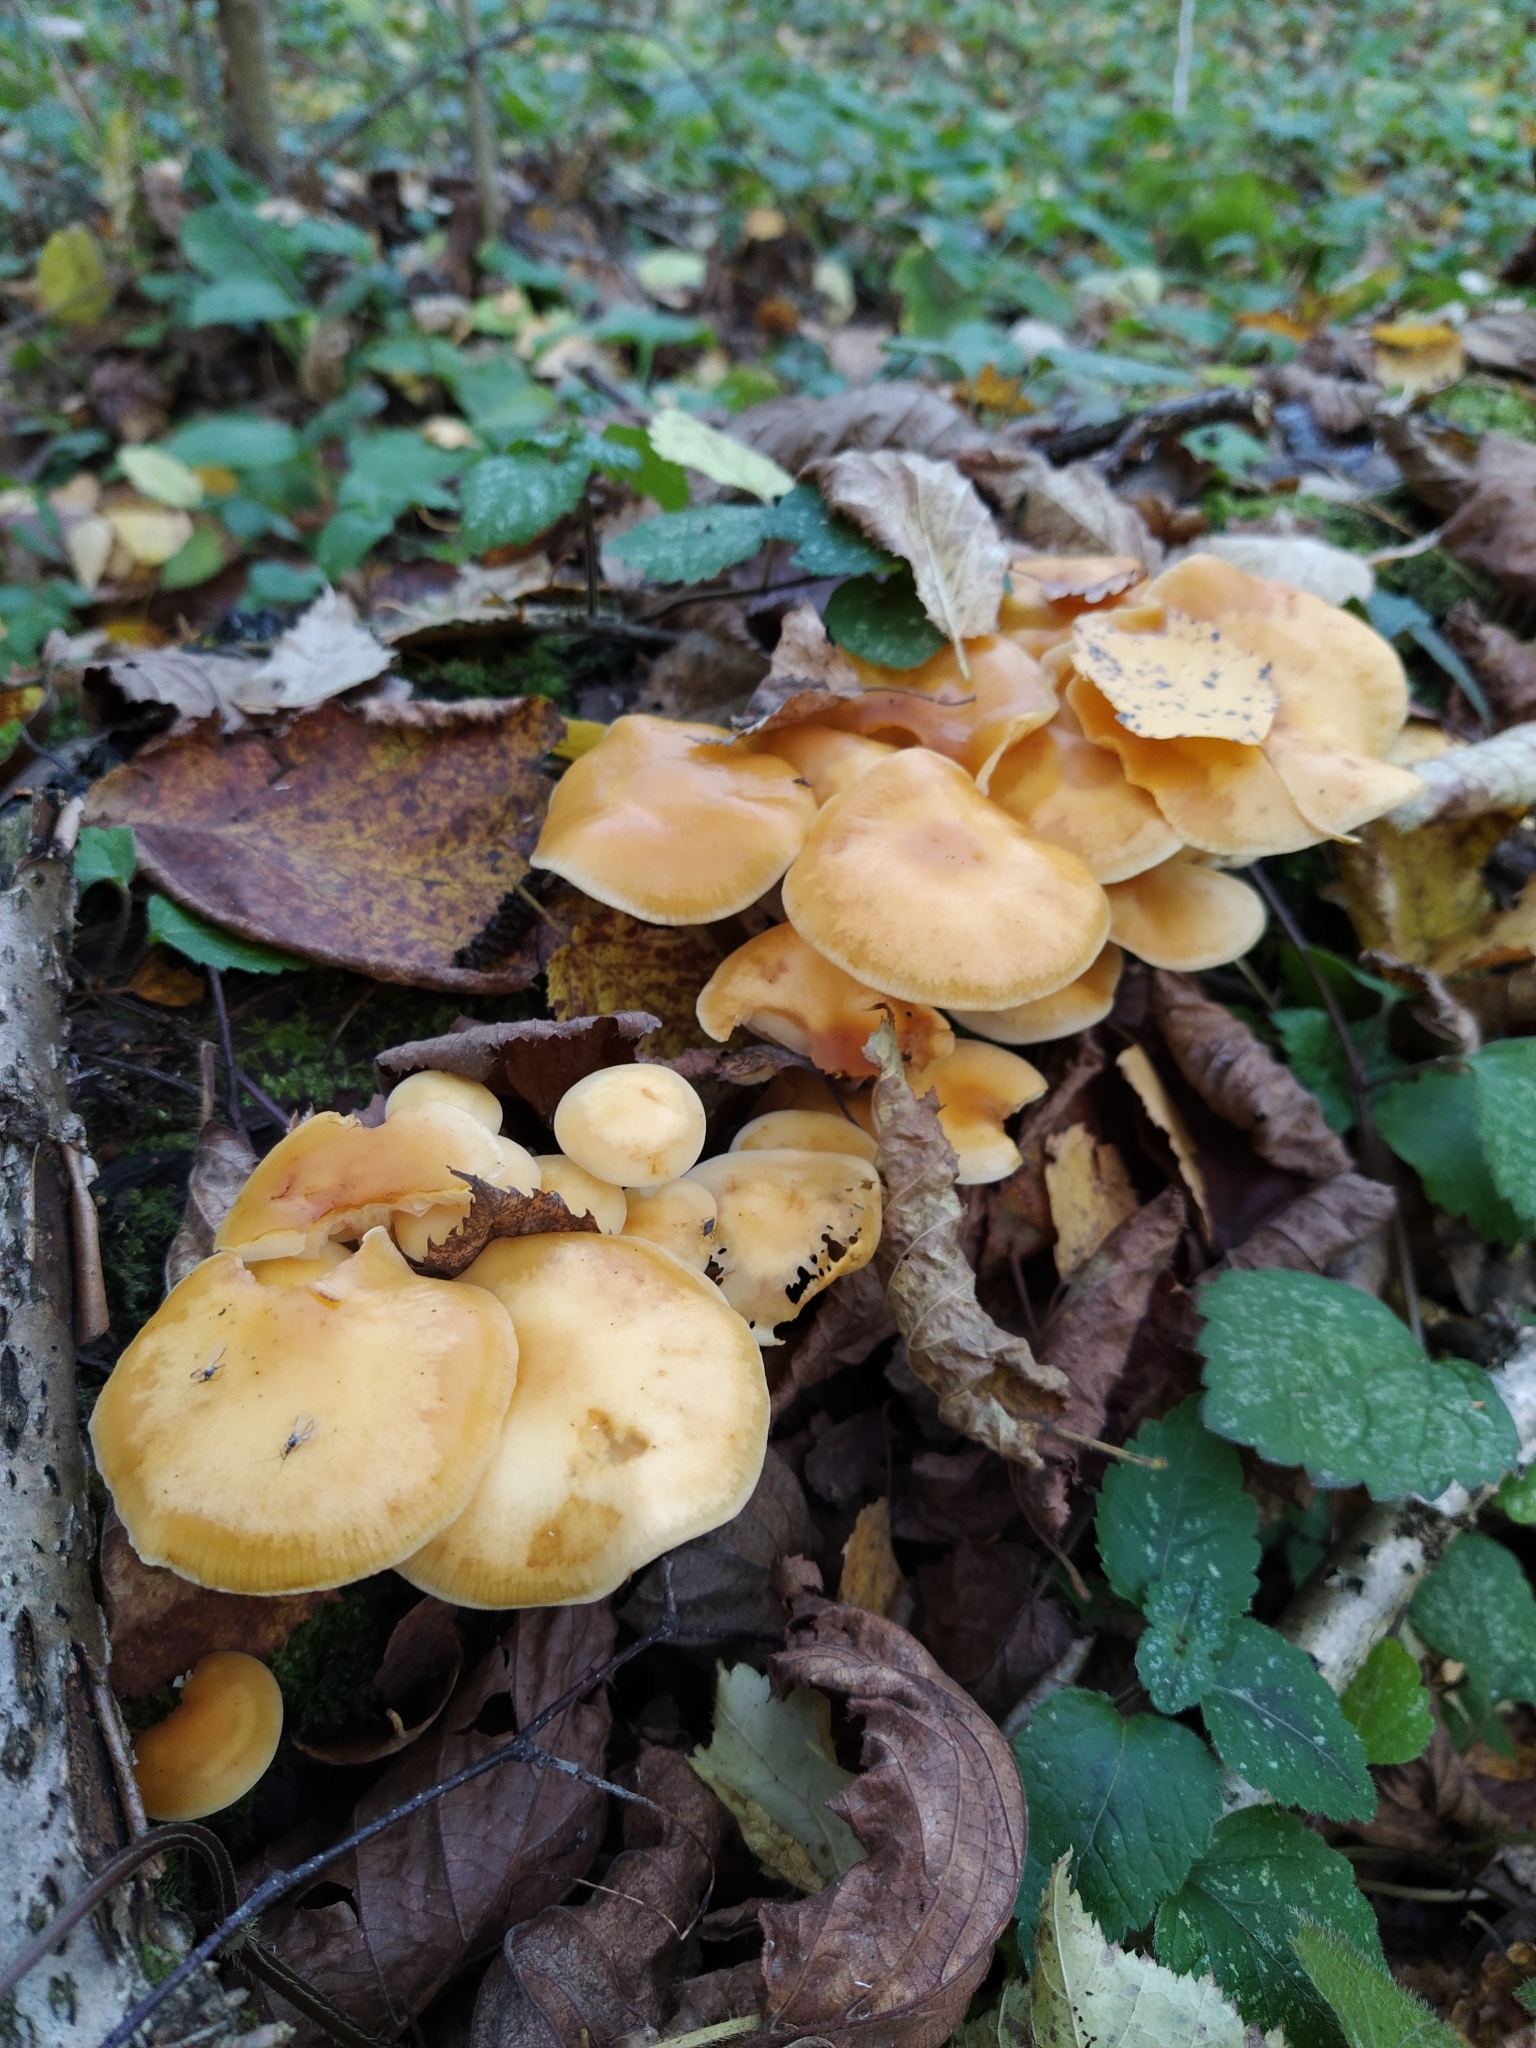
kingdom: Fungi
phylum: Basidiomycota
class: Agaricomycetes
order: Agaricales
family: Physalacriaceae
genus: Flammulina
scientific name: Flammulina
